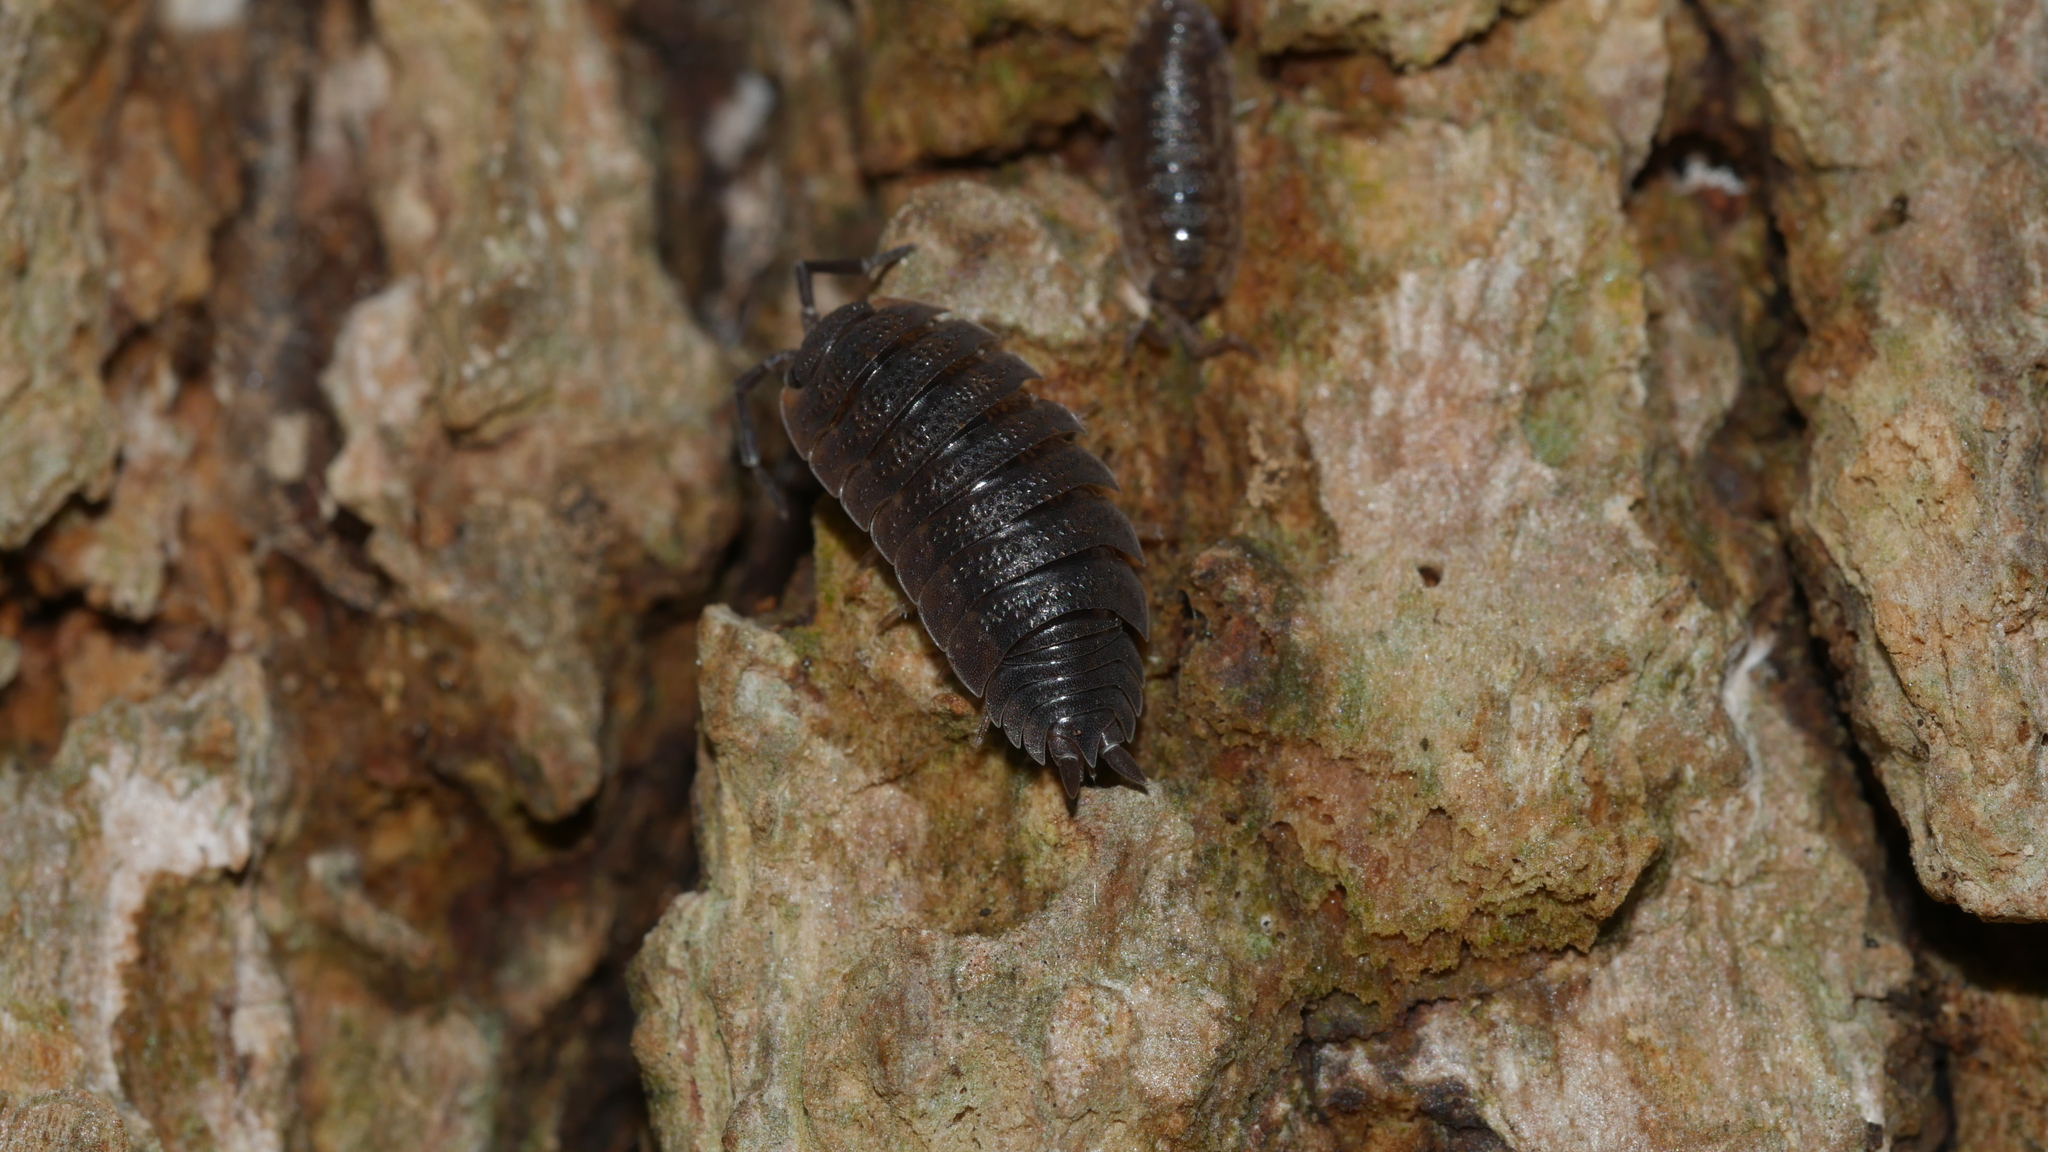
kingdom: Animalia
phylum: Arthropoda
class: Malacostraca
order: Isopoda
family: Porcellionidae
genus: Porcellio
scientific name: Porcellio scaber
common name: Common rough woodlouse
